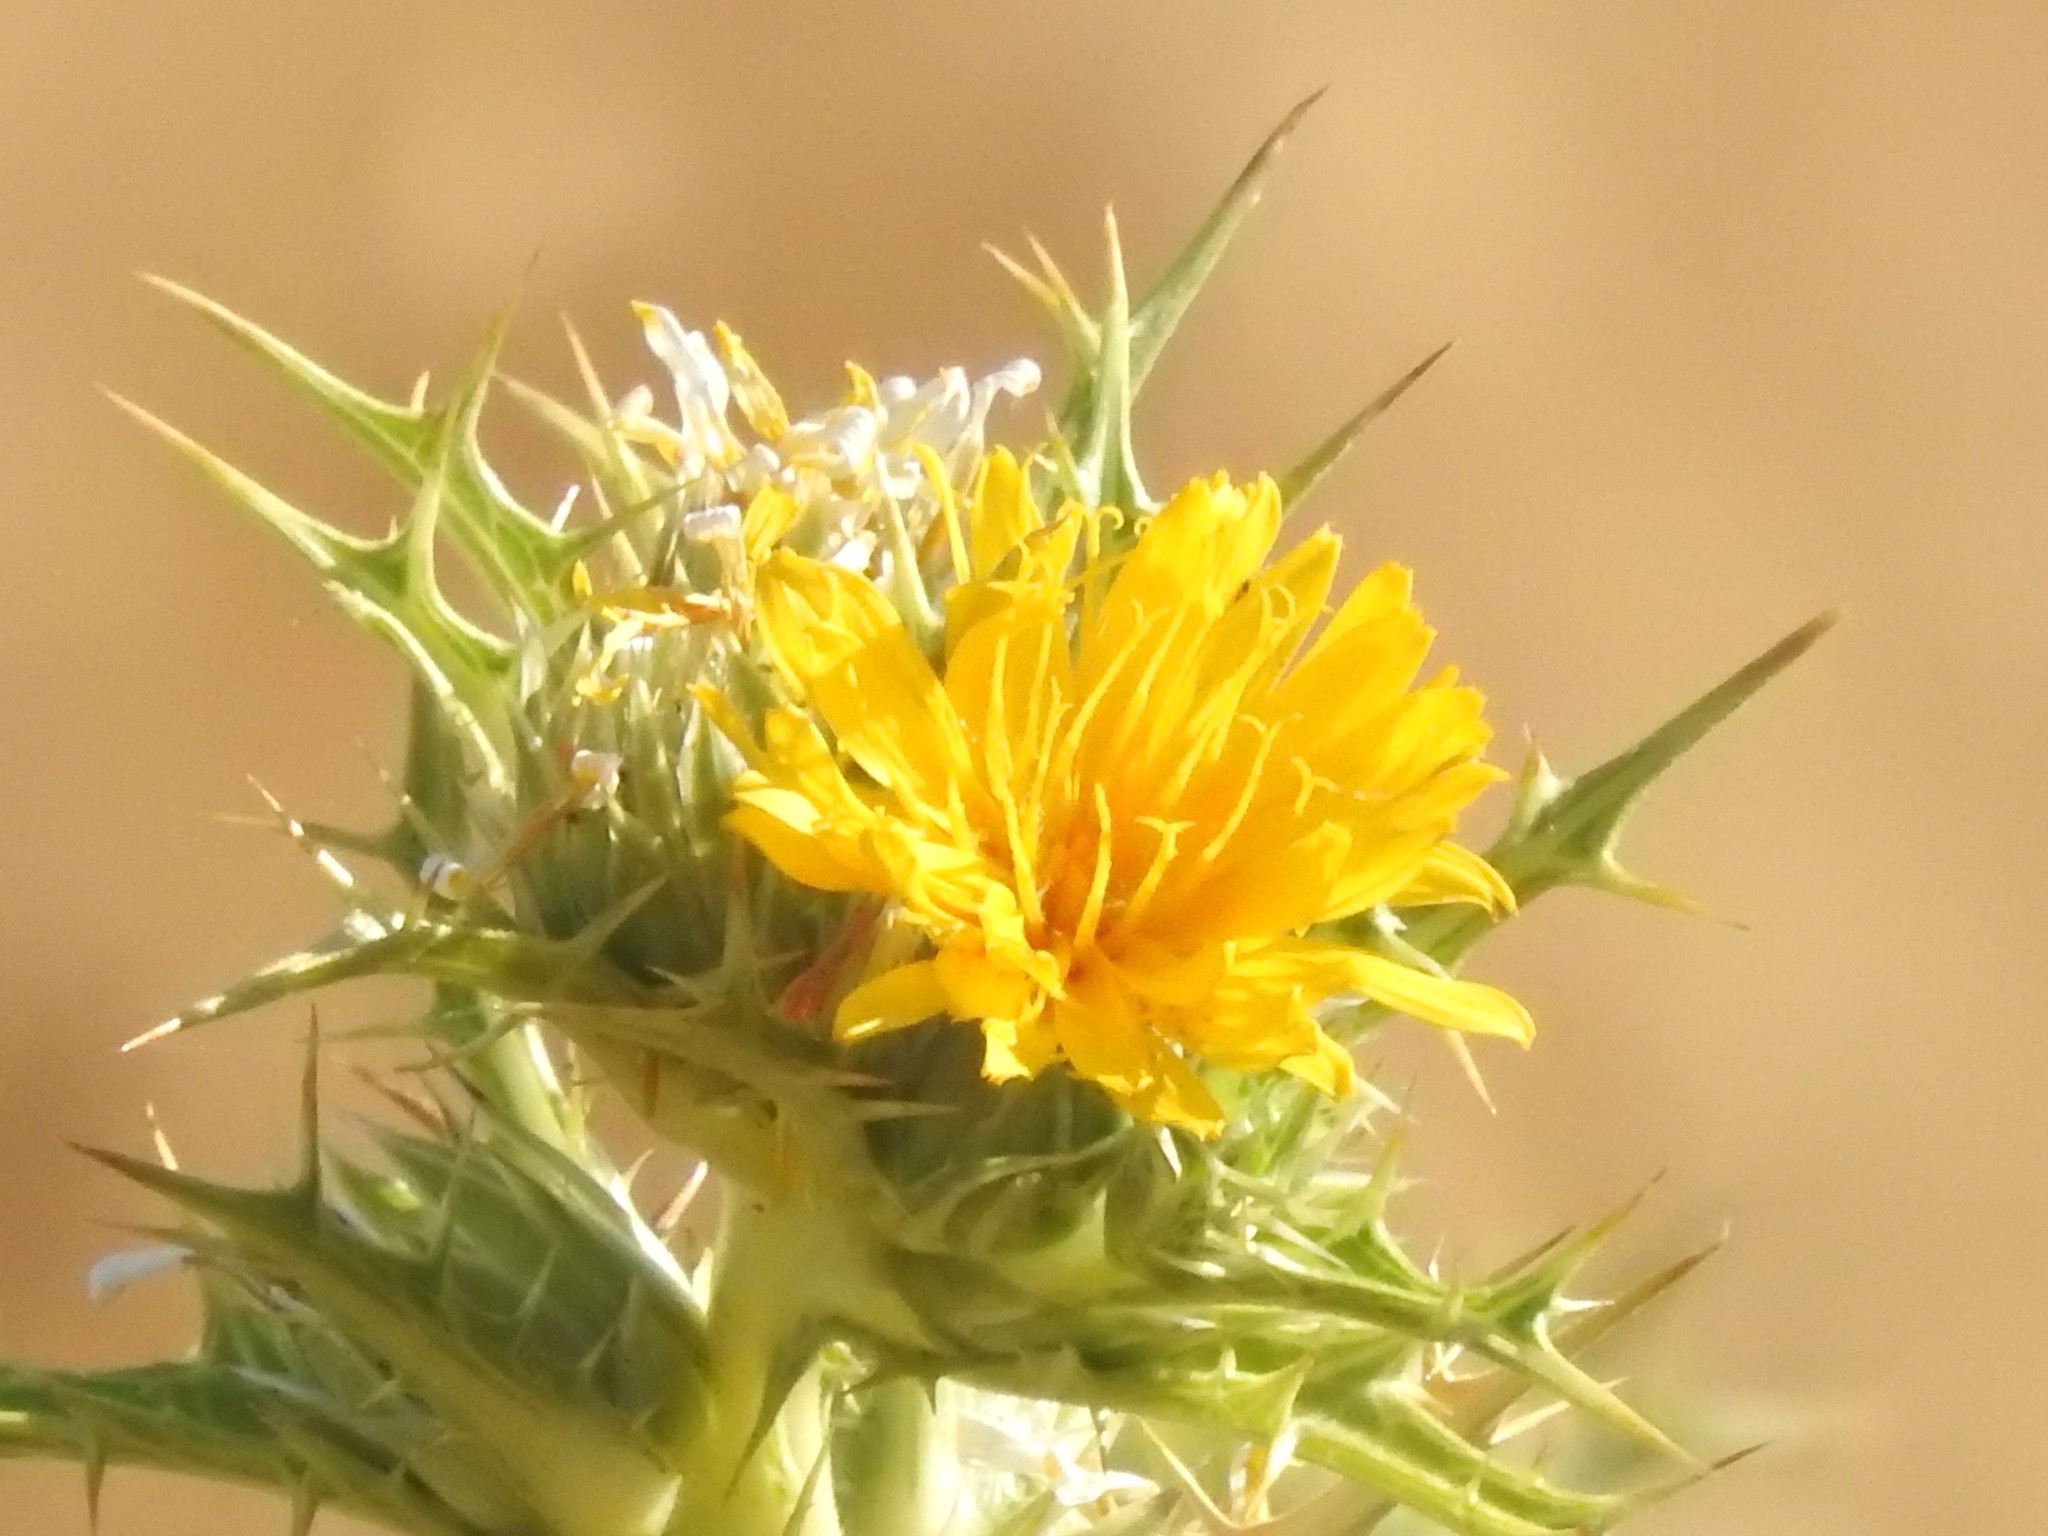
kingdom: Plantae
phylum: Tracheophyta
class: Magnoliopsida
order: Asterales
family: Asteraceae
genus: Scolymus
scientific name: Scolymus hispanicus
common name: Golden thistle
